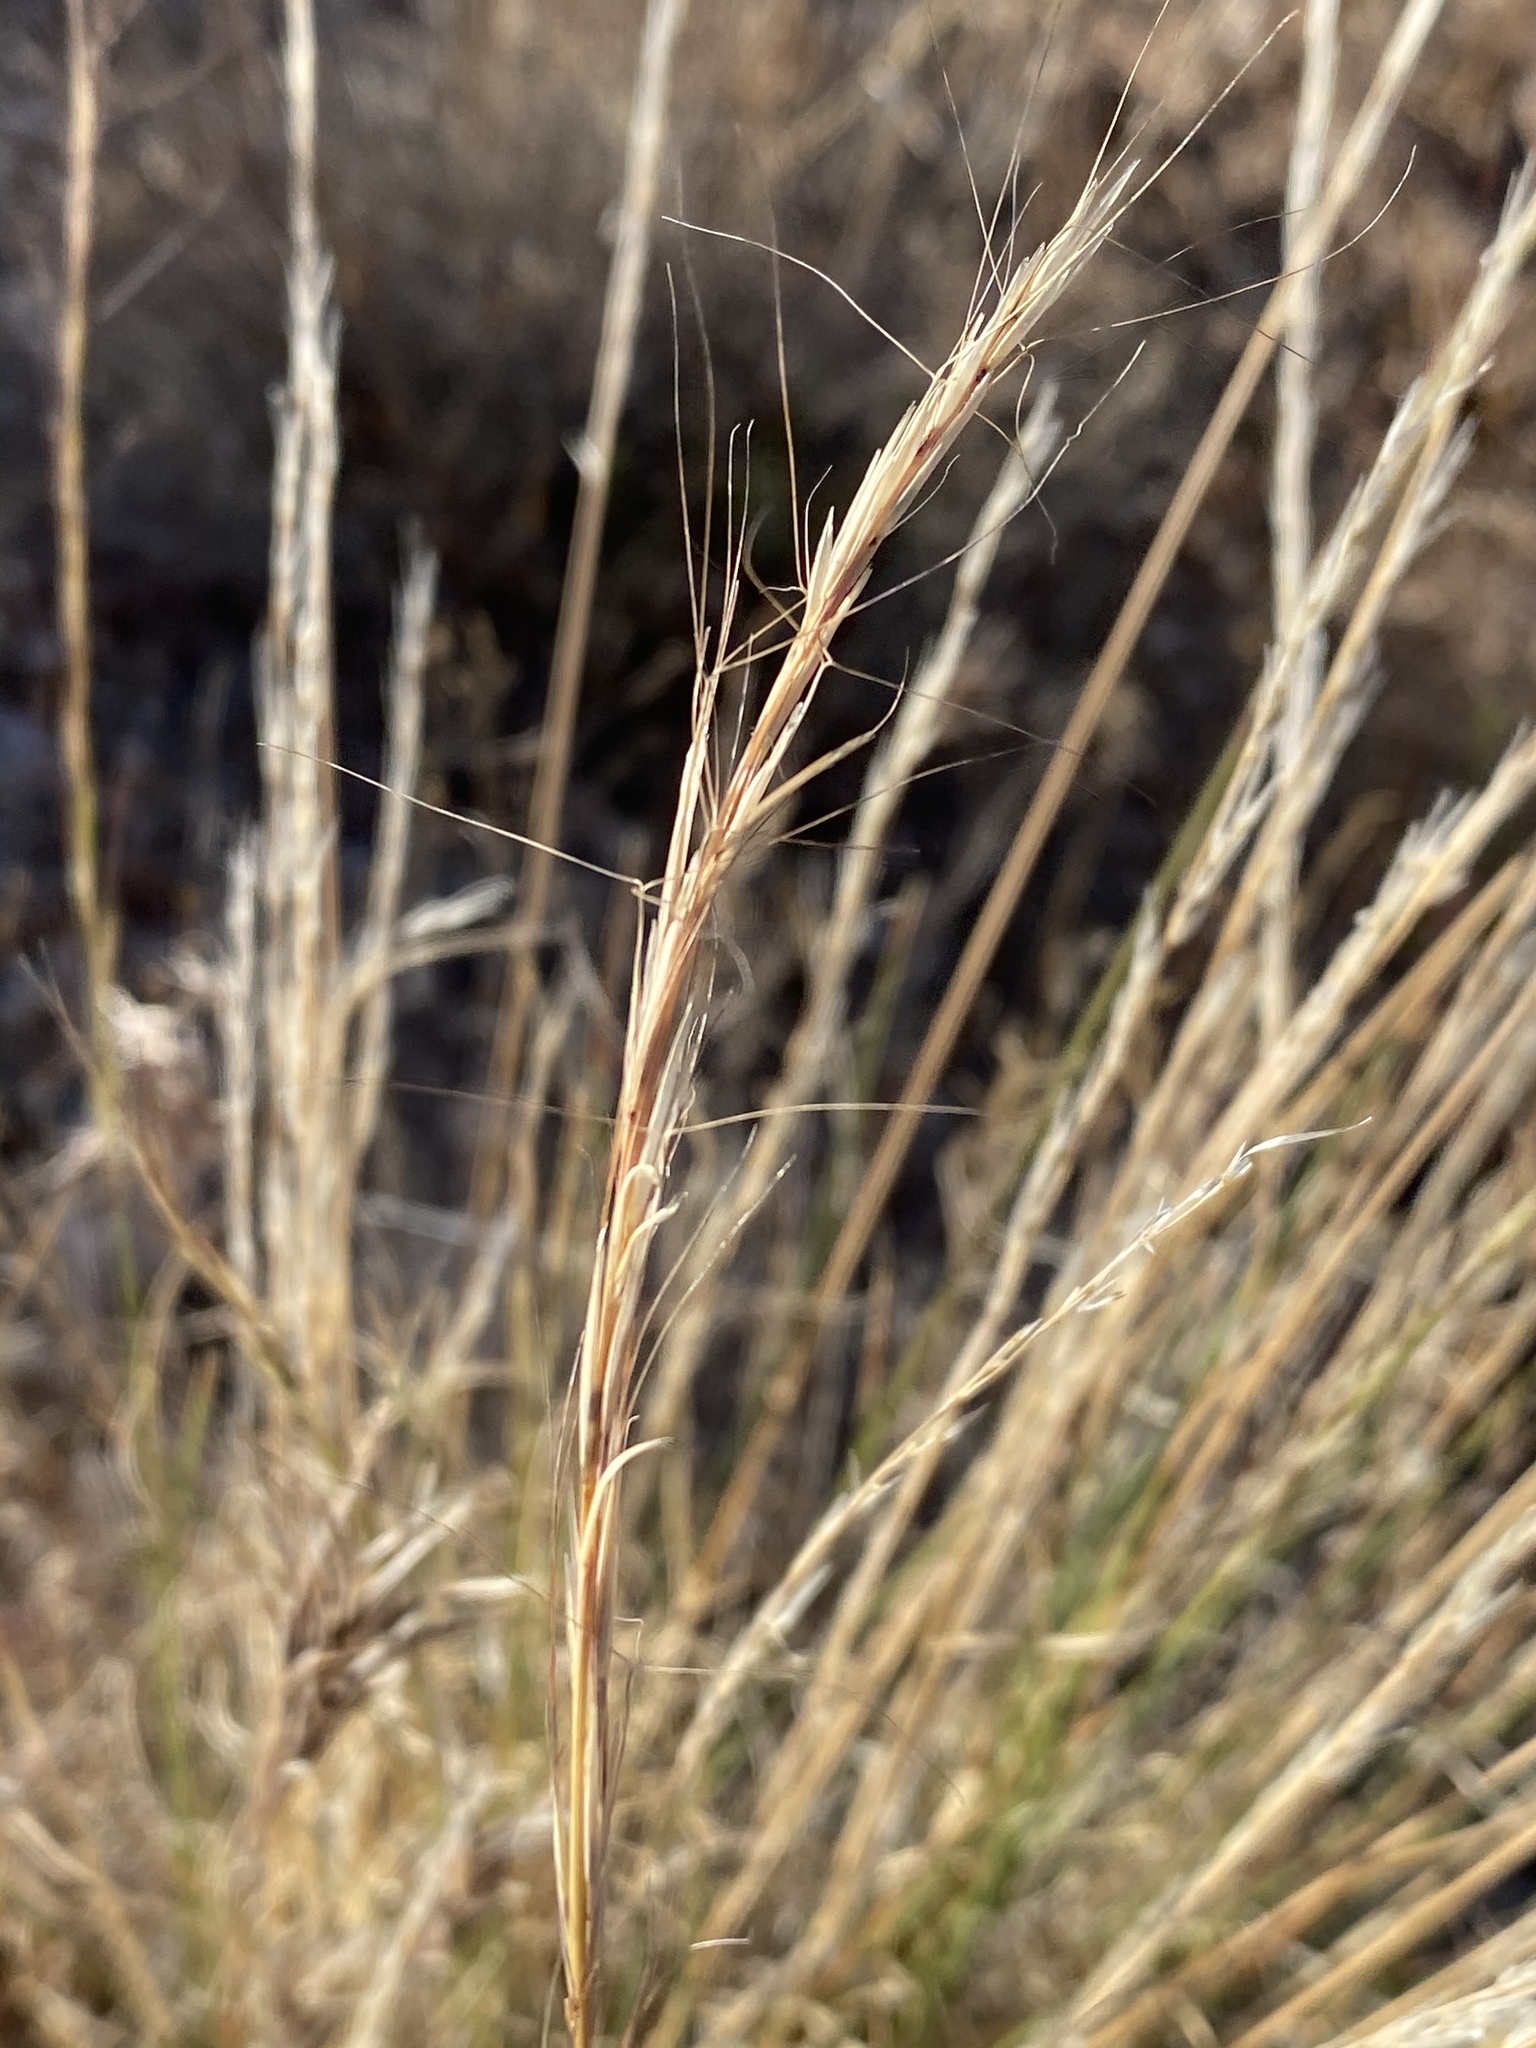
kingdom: Plantae
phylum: Tracheophyta
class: Liliopsida
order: Poales
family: Poaceae
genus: Aristida
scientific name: Aristida purpurea
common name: Purple threeawn
